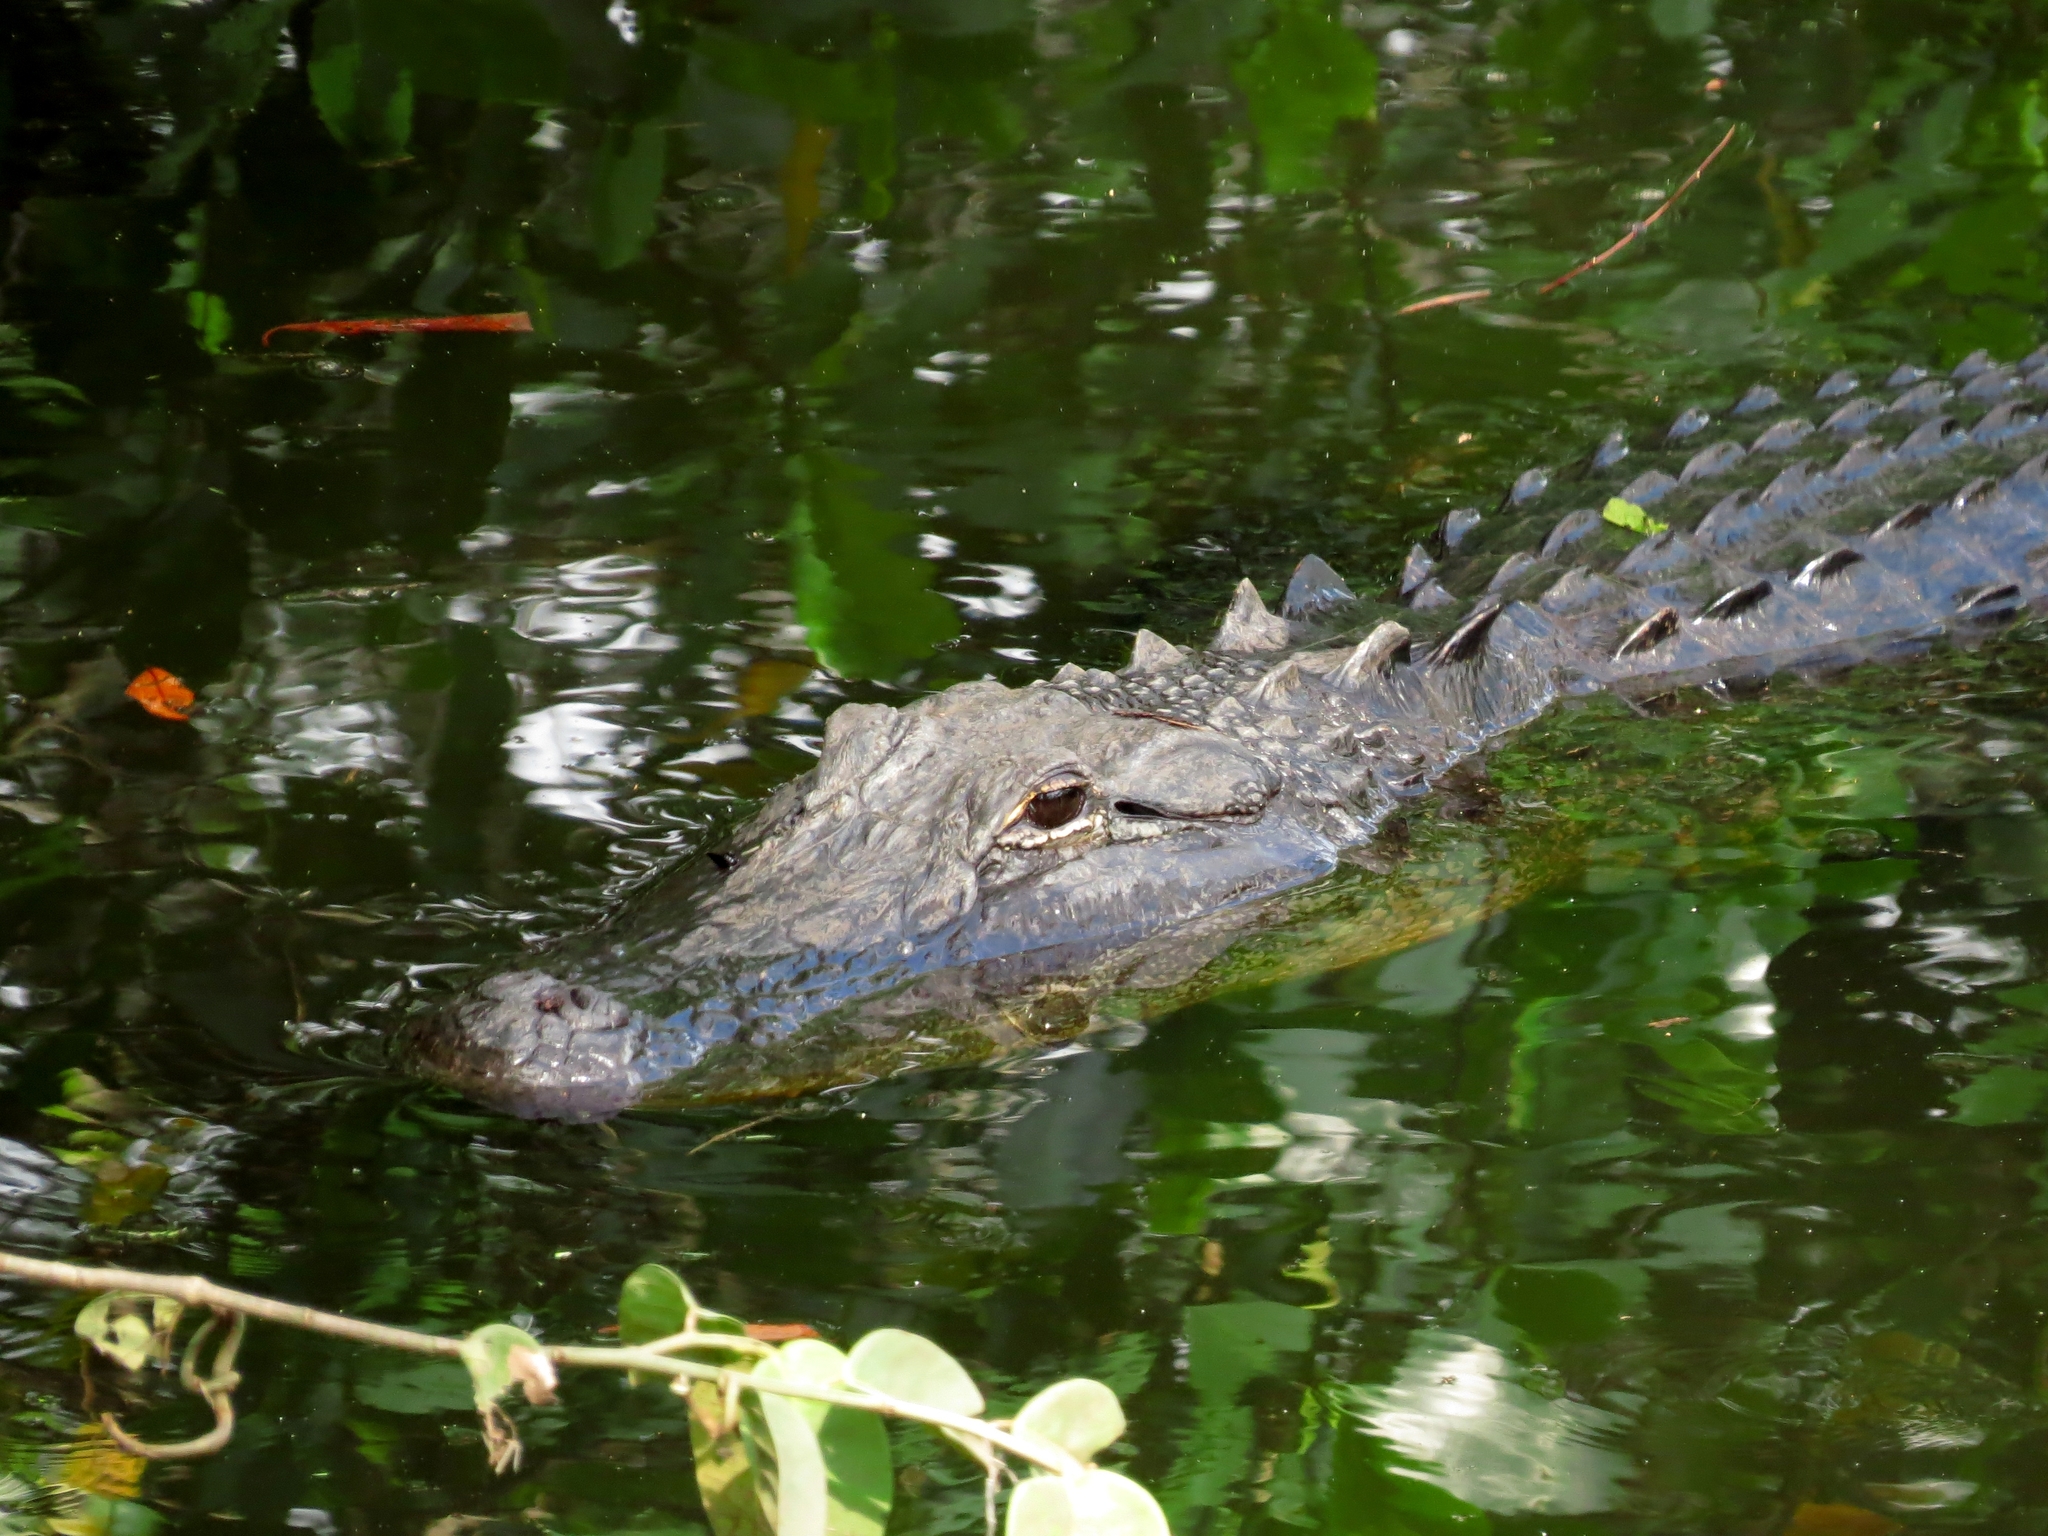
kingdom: Animalia
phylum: Chordata
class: Crocodylia
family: Alligatoridae
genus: Alligator
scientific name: Alligator mississippiensis
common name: American alligator
